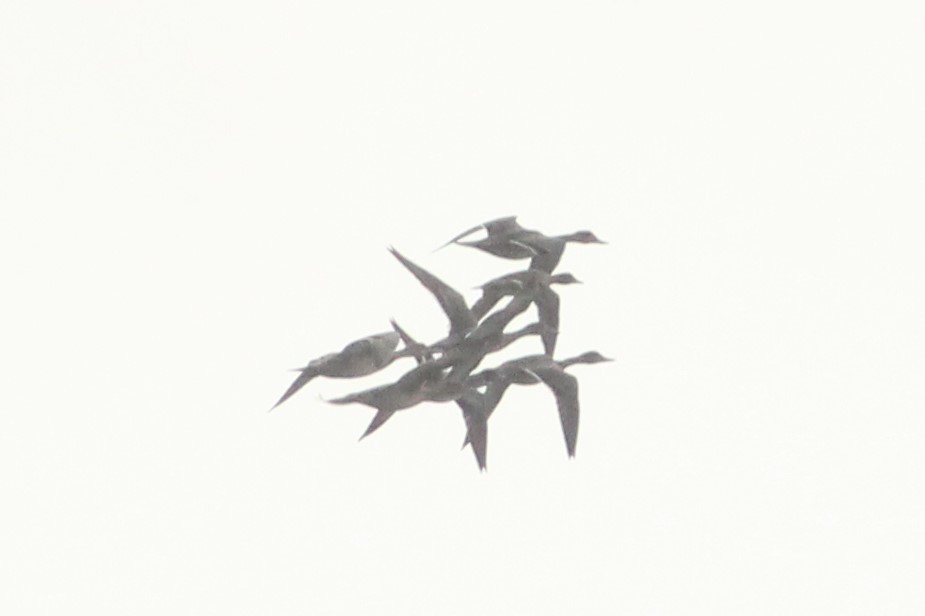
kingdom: Animalia
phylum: Chordata
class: Aves
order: Anseriformes
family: Anatidae
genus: Anas
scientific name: Anas acuta
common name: Northern pintail
